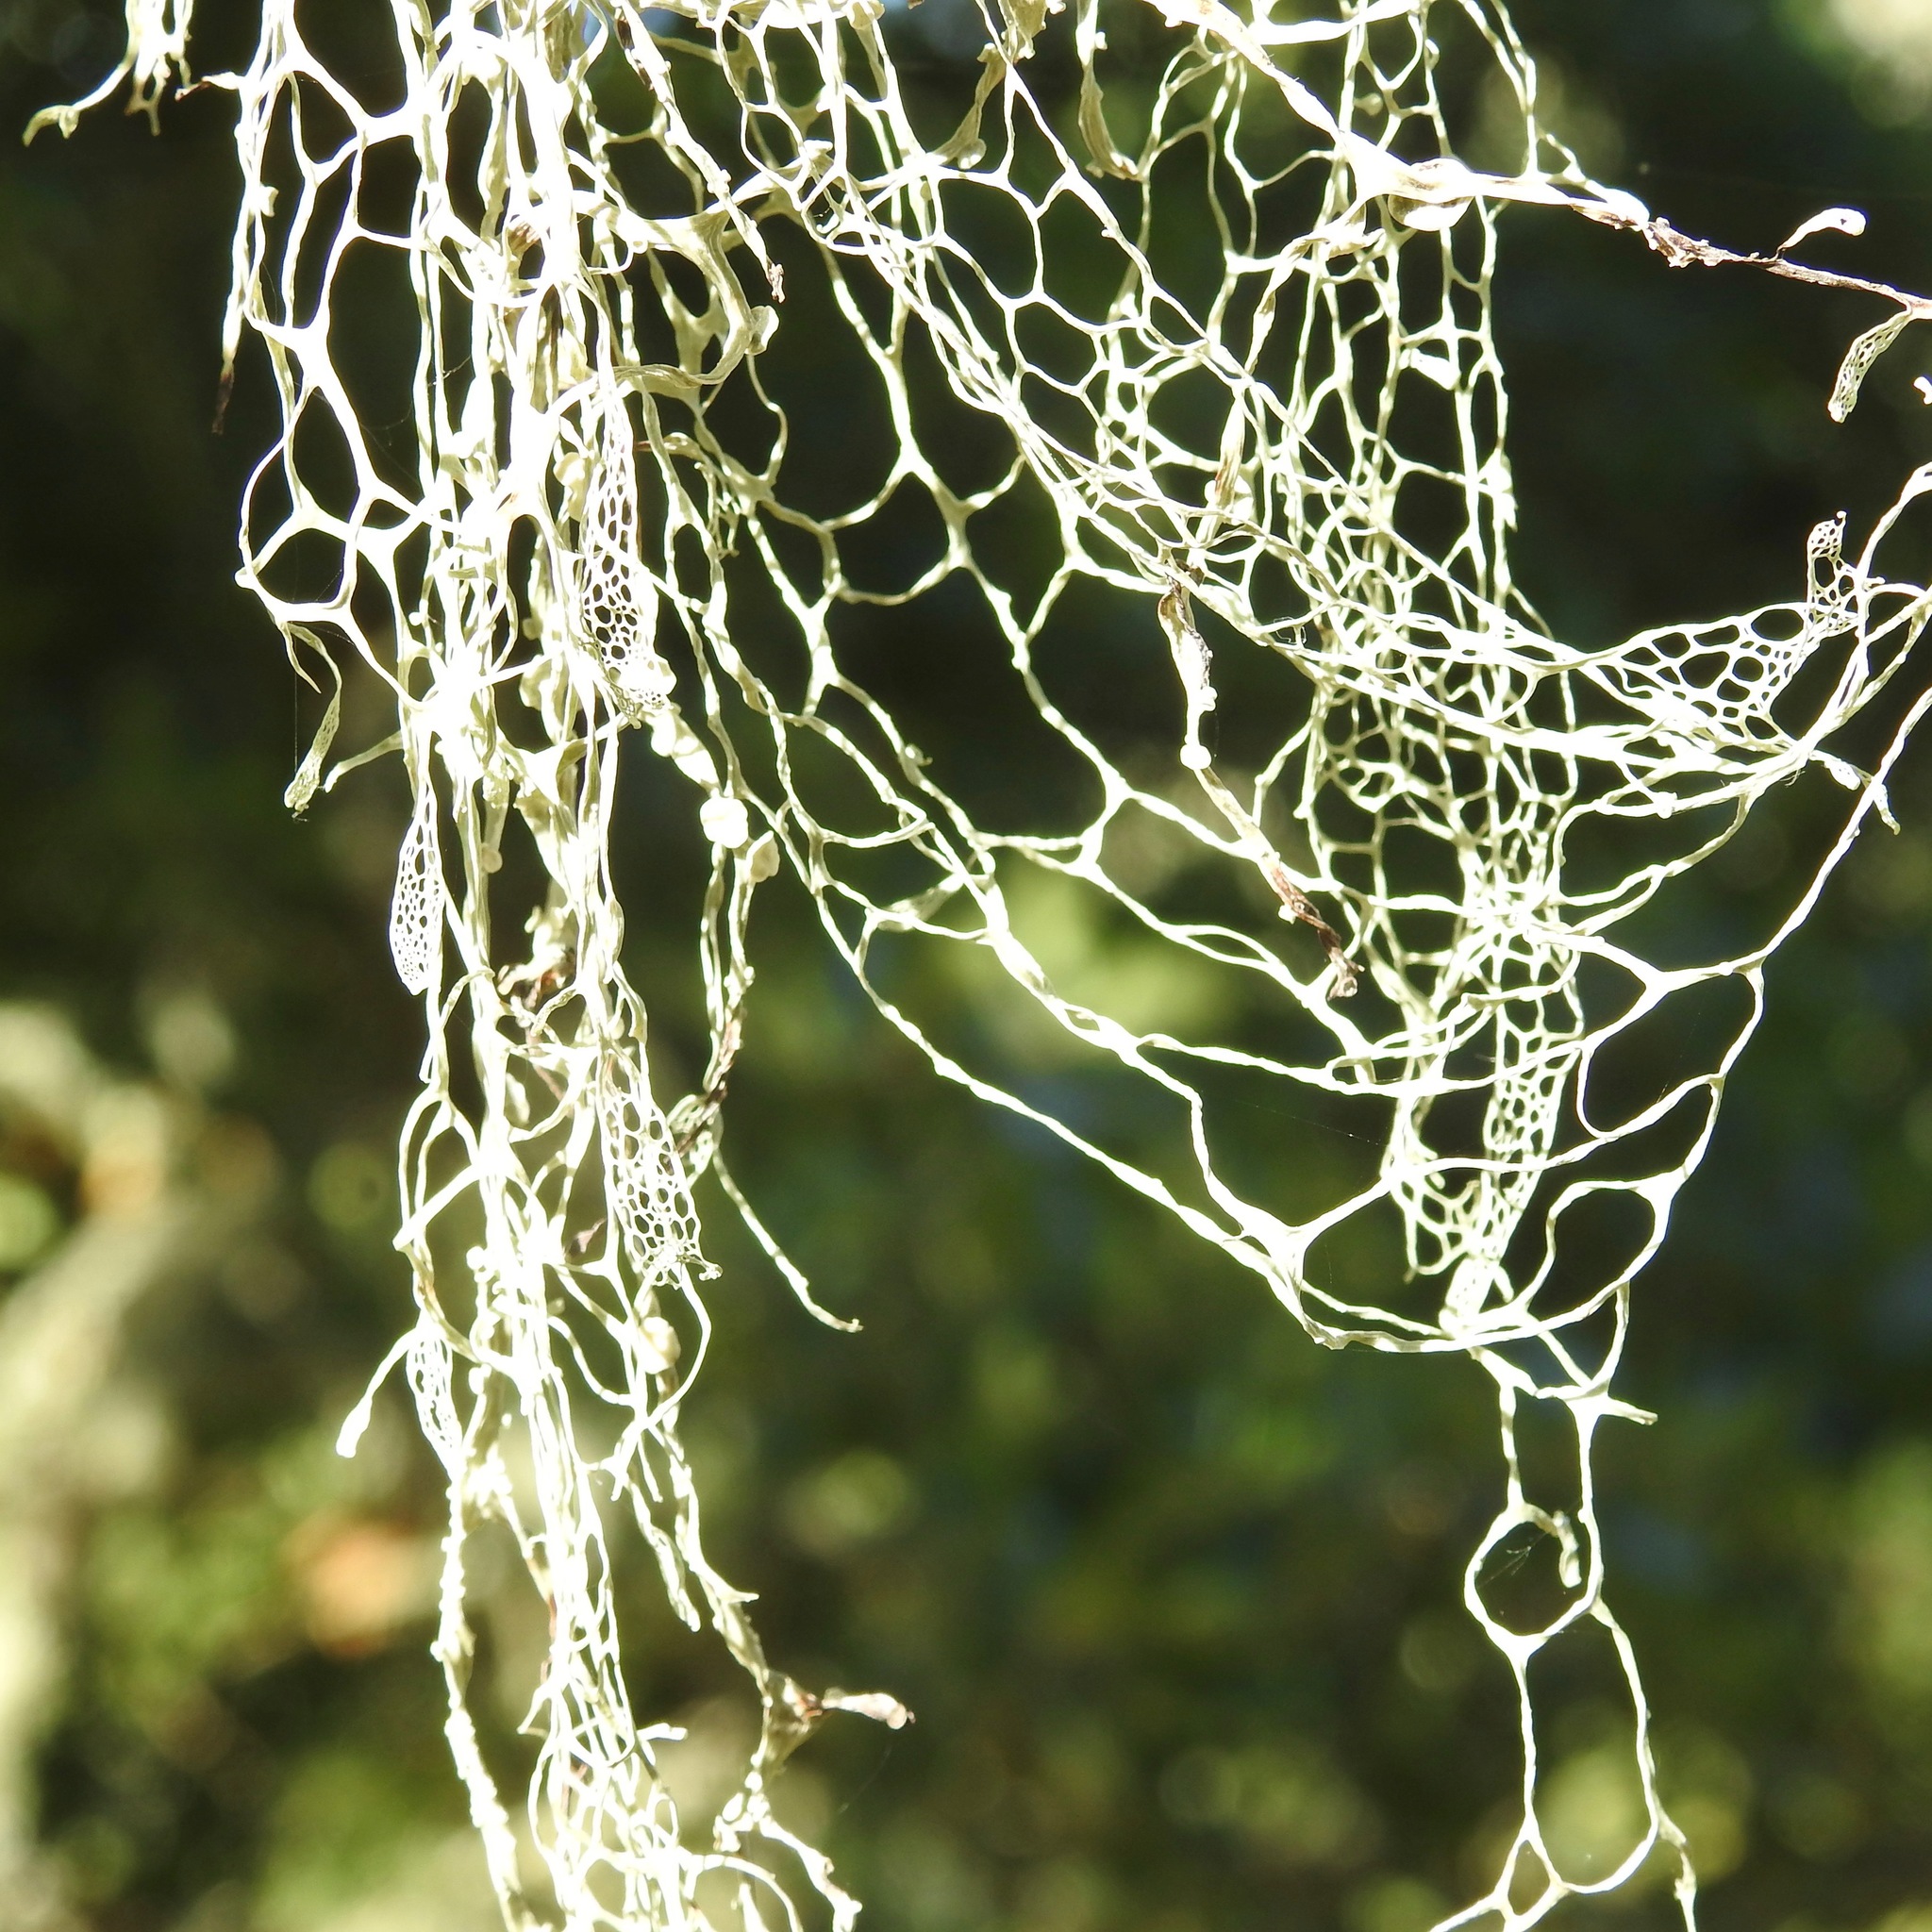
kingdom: Fungi
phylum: Ascomycota
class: Lecanoromycetes
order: Lecanorales
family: Ramalinaceae
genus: Ramalina
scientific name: Ramalina menziesii
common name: Lace lichen
